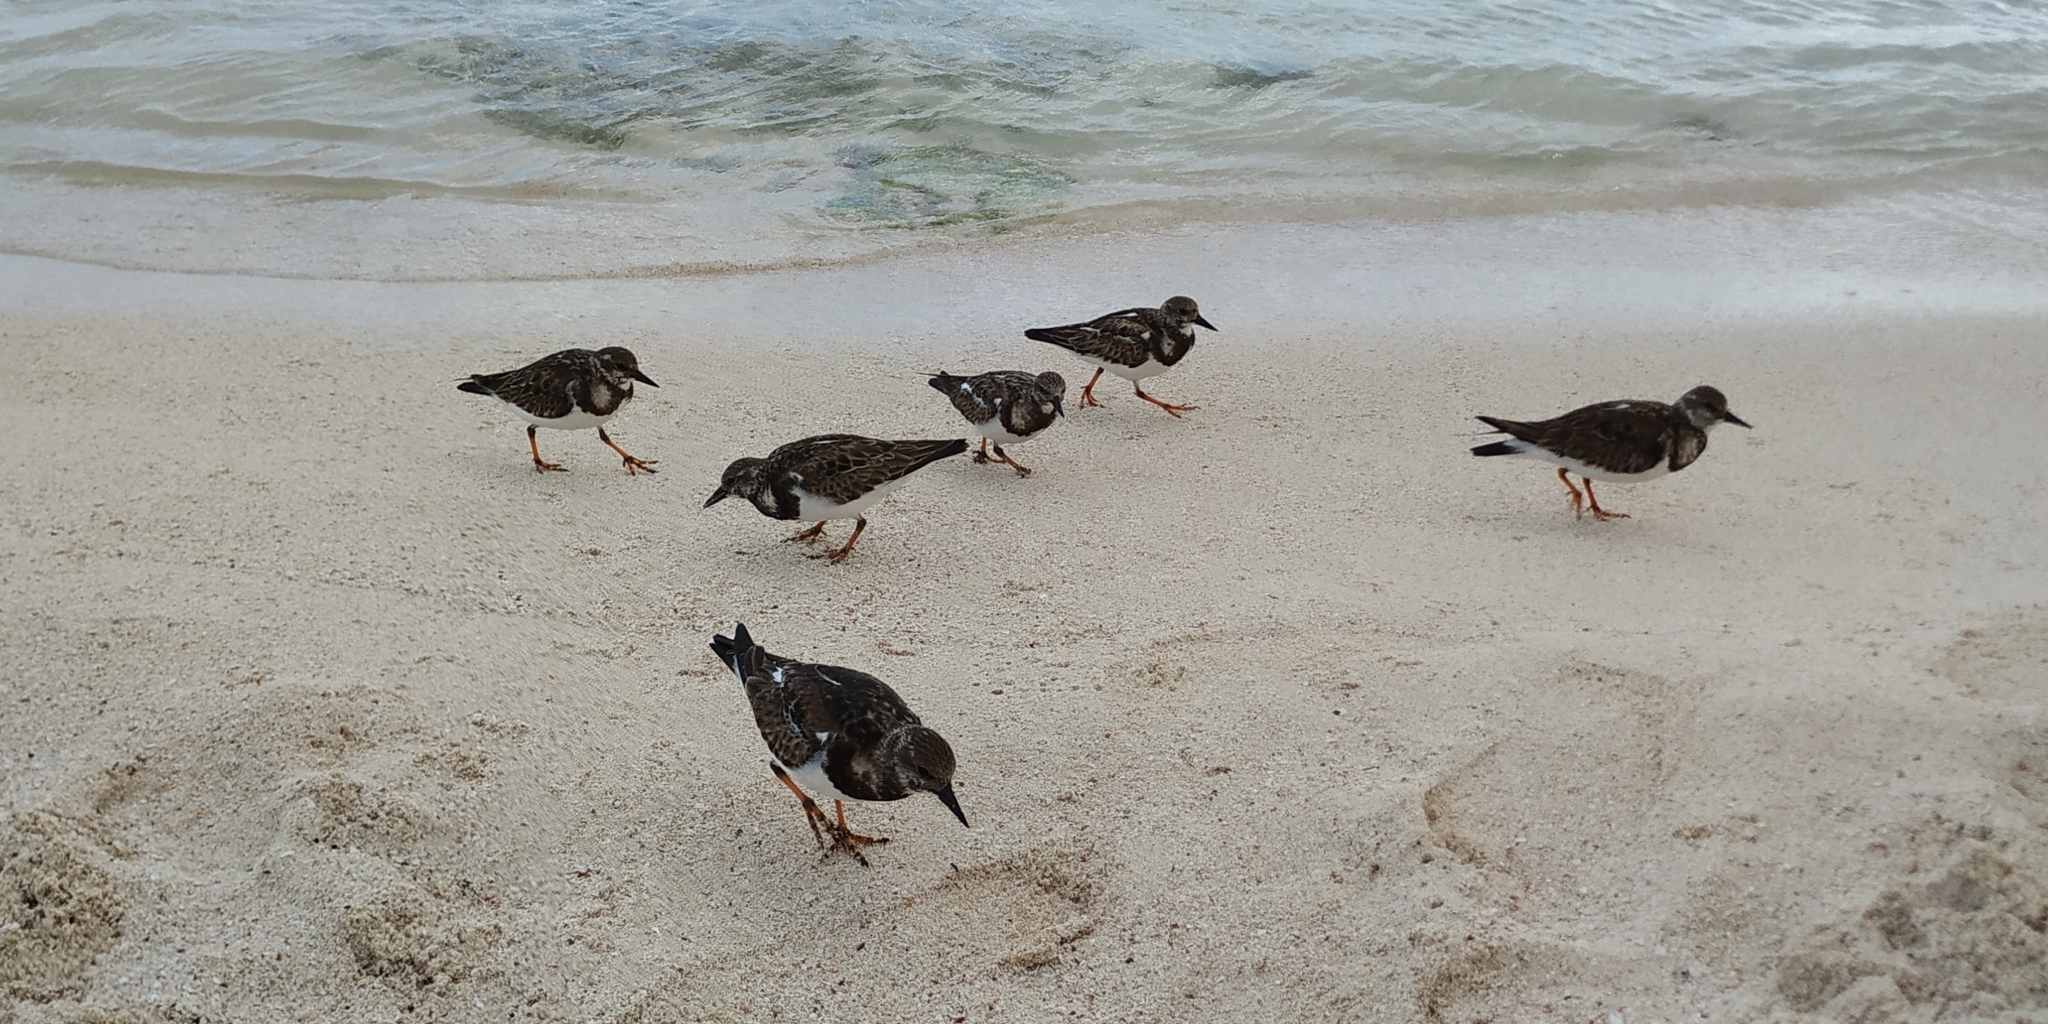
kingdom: Animalia
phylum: Chordata
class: Aves
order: Charadriiformes
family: Scolopacidae
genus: Arenaria
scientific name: Arenaria interpres
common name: Ruddy turnstone
